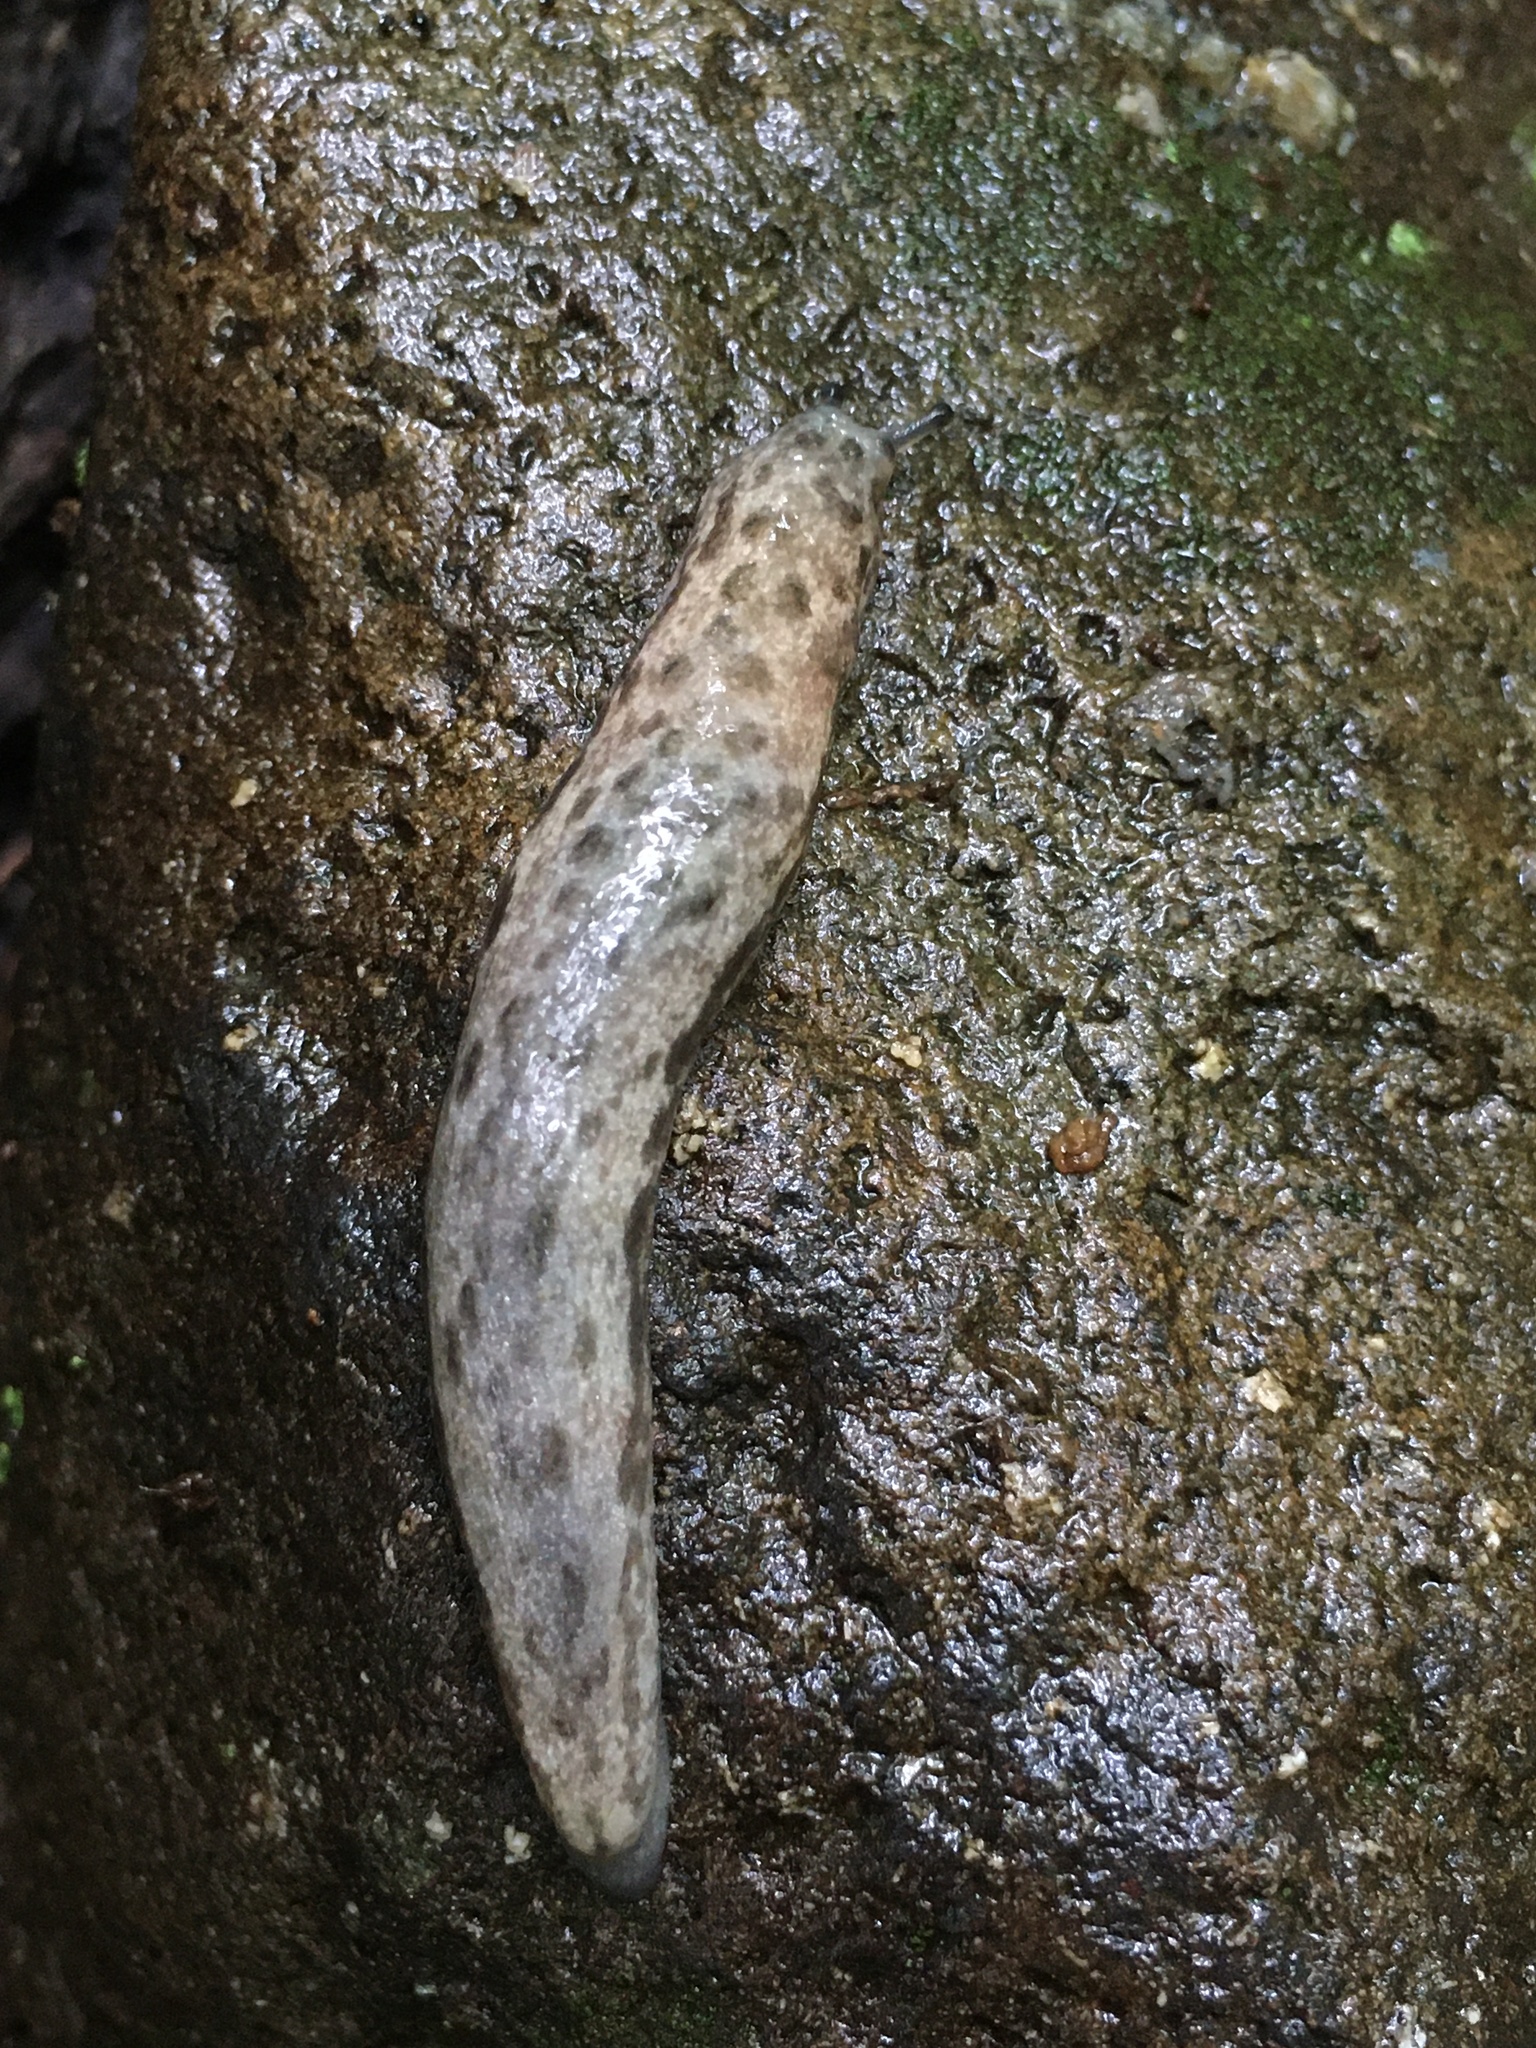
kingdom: Animalia
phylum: Mollusca
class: Gastropoda
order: Stylommatophora
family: Philomycidae
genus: Megapallifera
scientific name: Megapallifera mutabilis
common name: Changeable mantleslug
